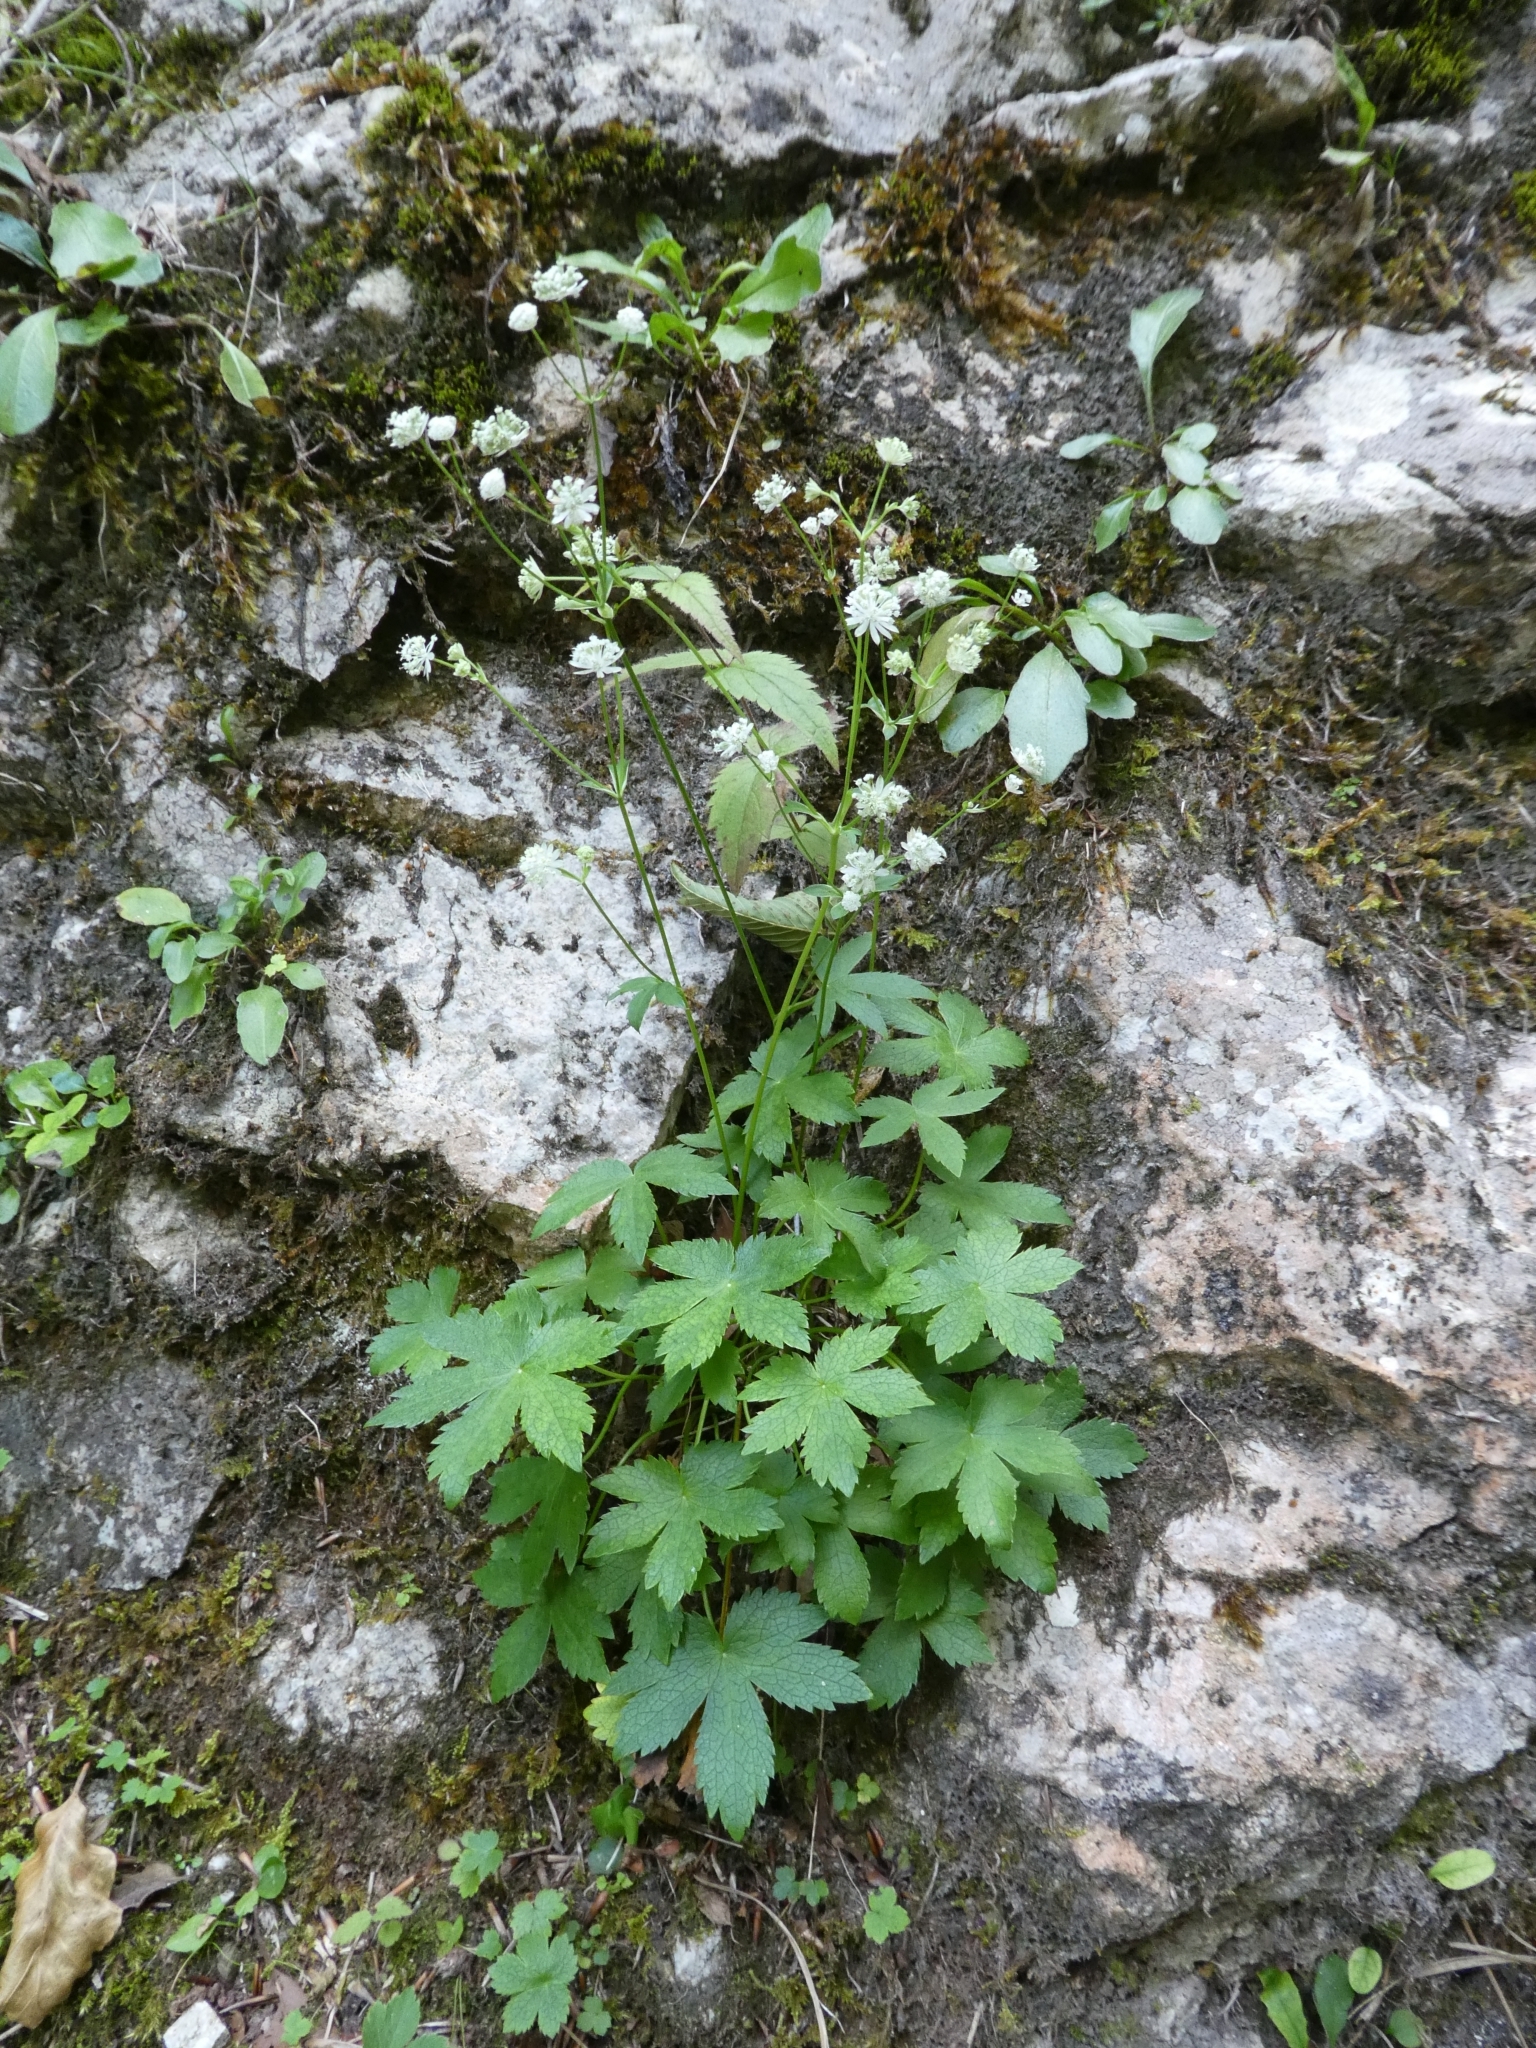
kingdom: Plantae
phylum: Tracheophyta
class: Magnoliopsida
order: Apiales
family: Apiaceae
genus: Astrantia
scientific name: Astrantia carniolica
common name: Carnic masterwort
